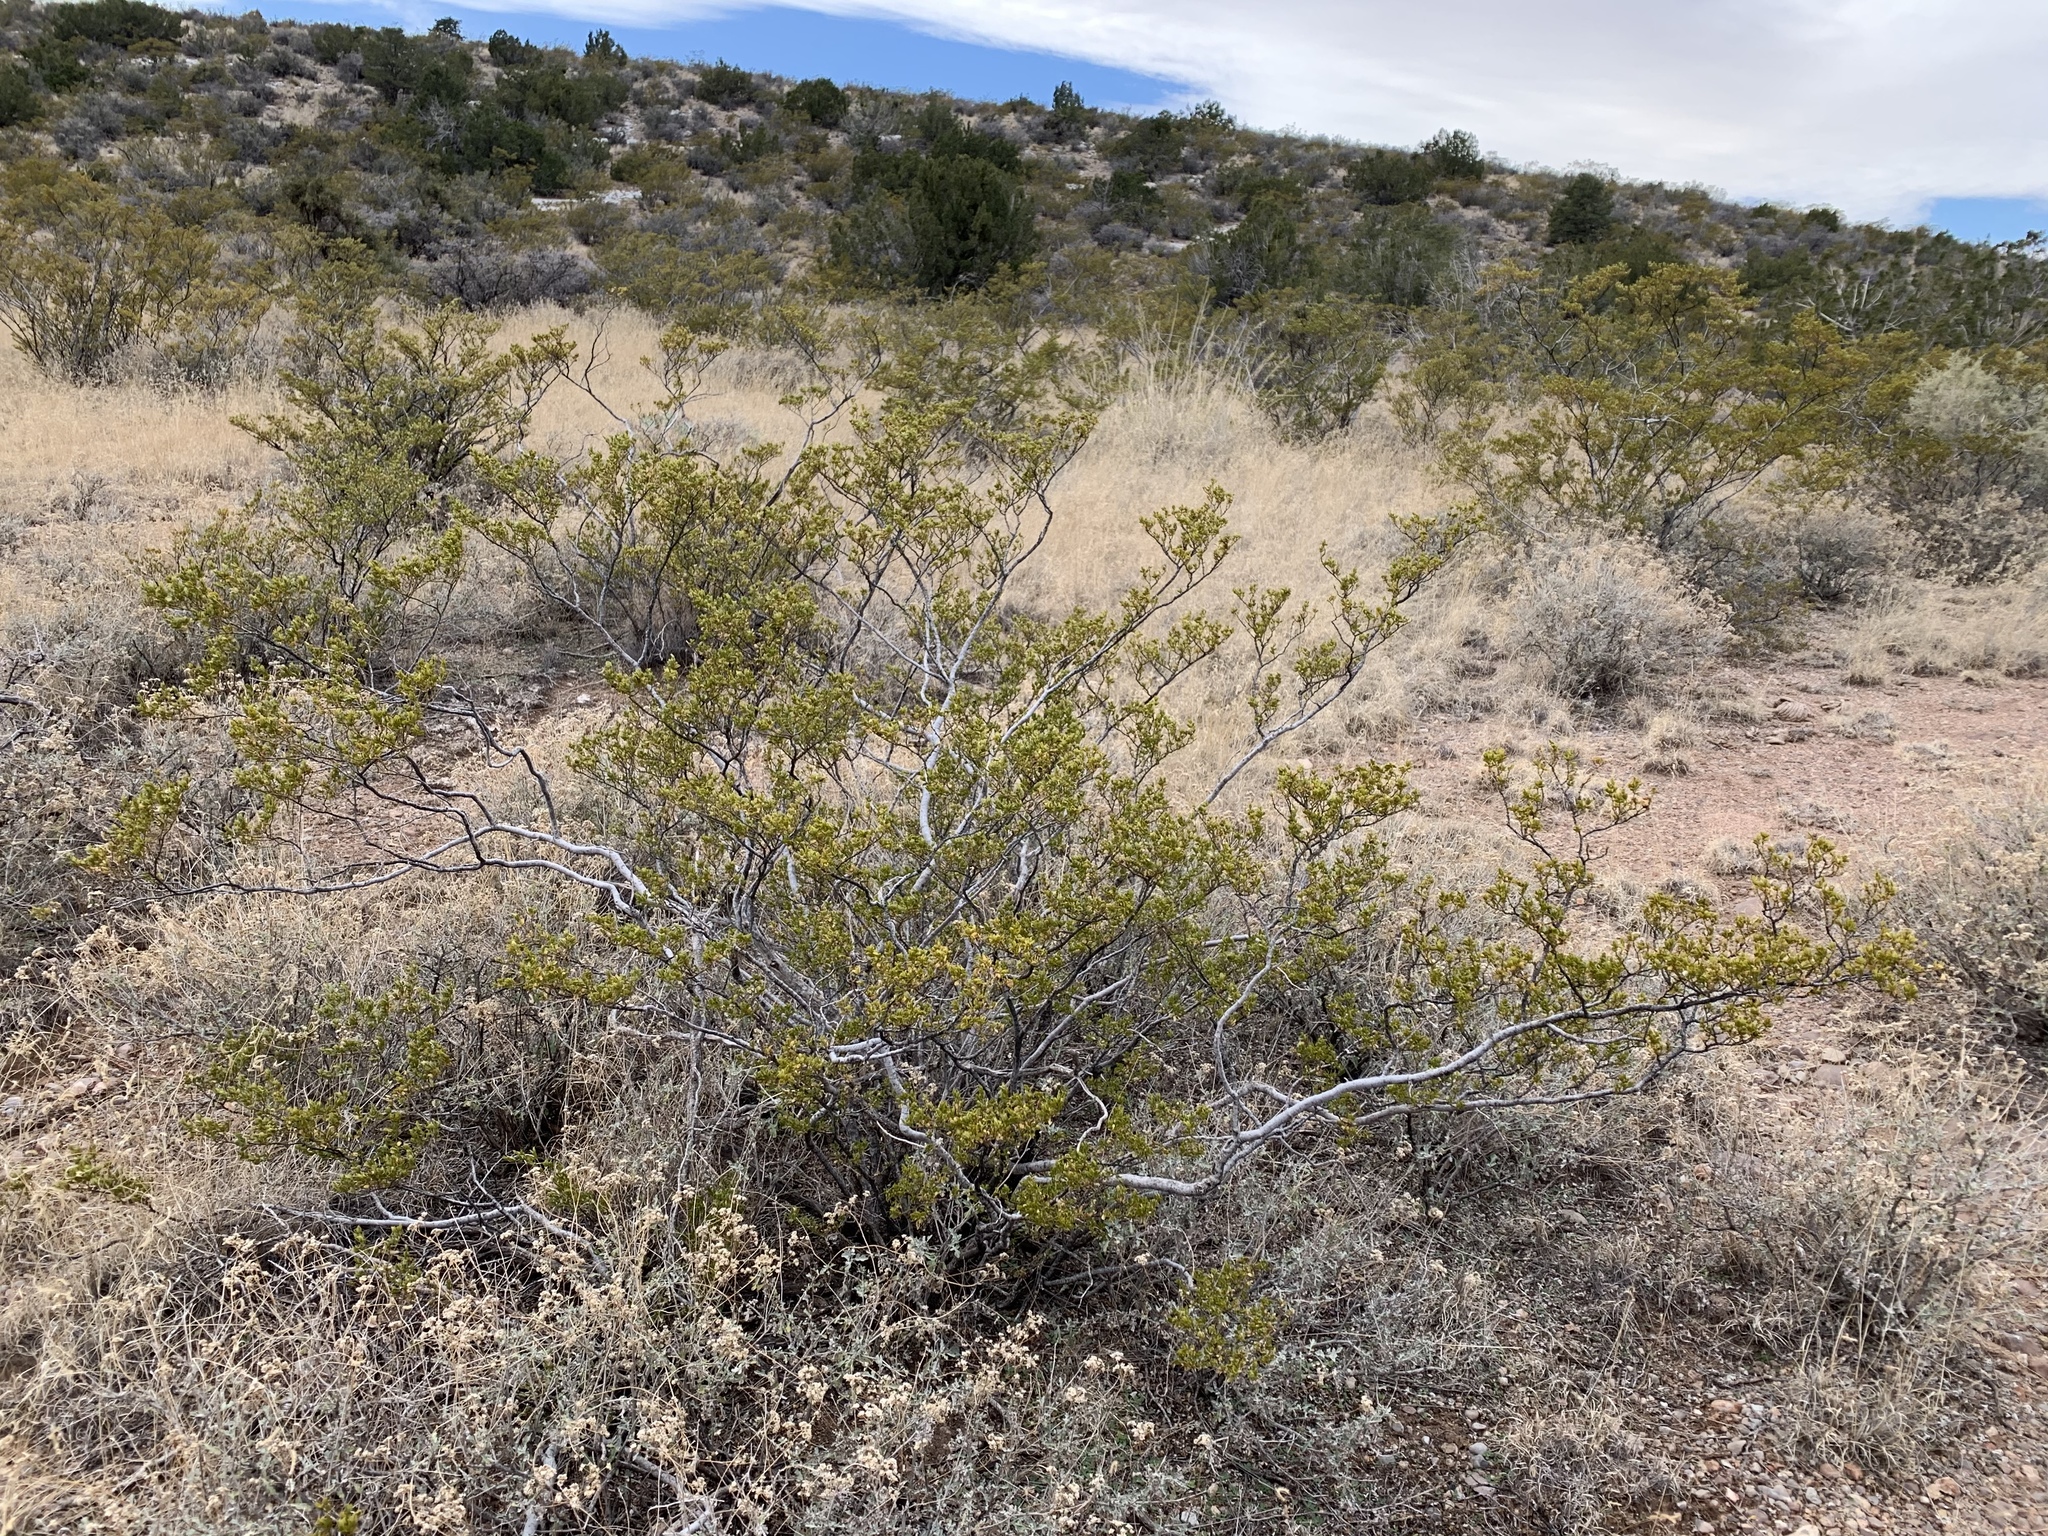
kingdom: Plantae
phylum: Tracheophyta
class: Magnoliopsida
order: Zygophyllales
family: Zygophyllaceae
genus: Larrea
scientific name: Larrea tridentata
